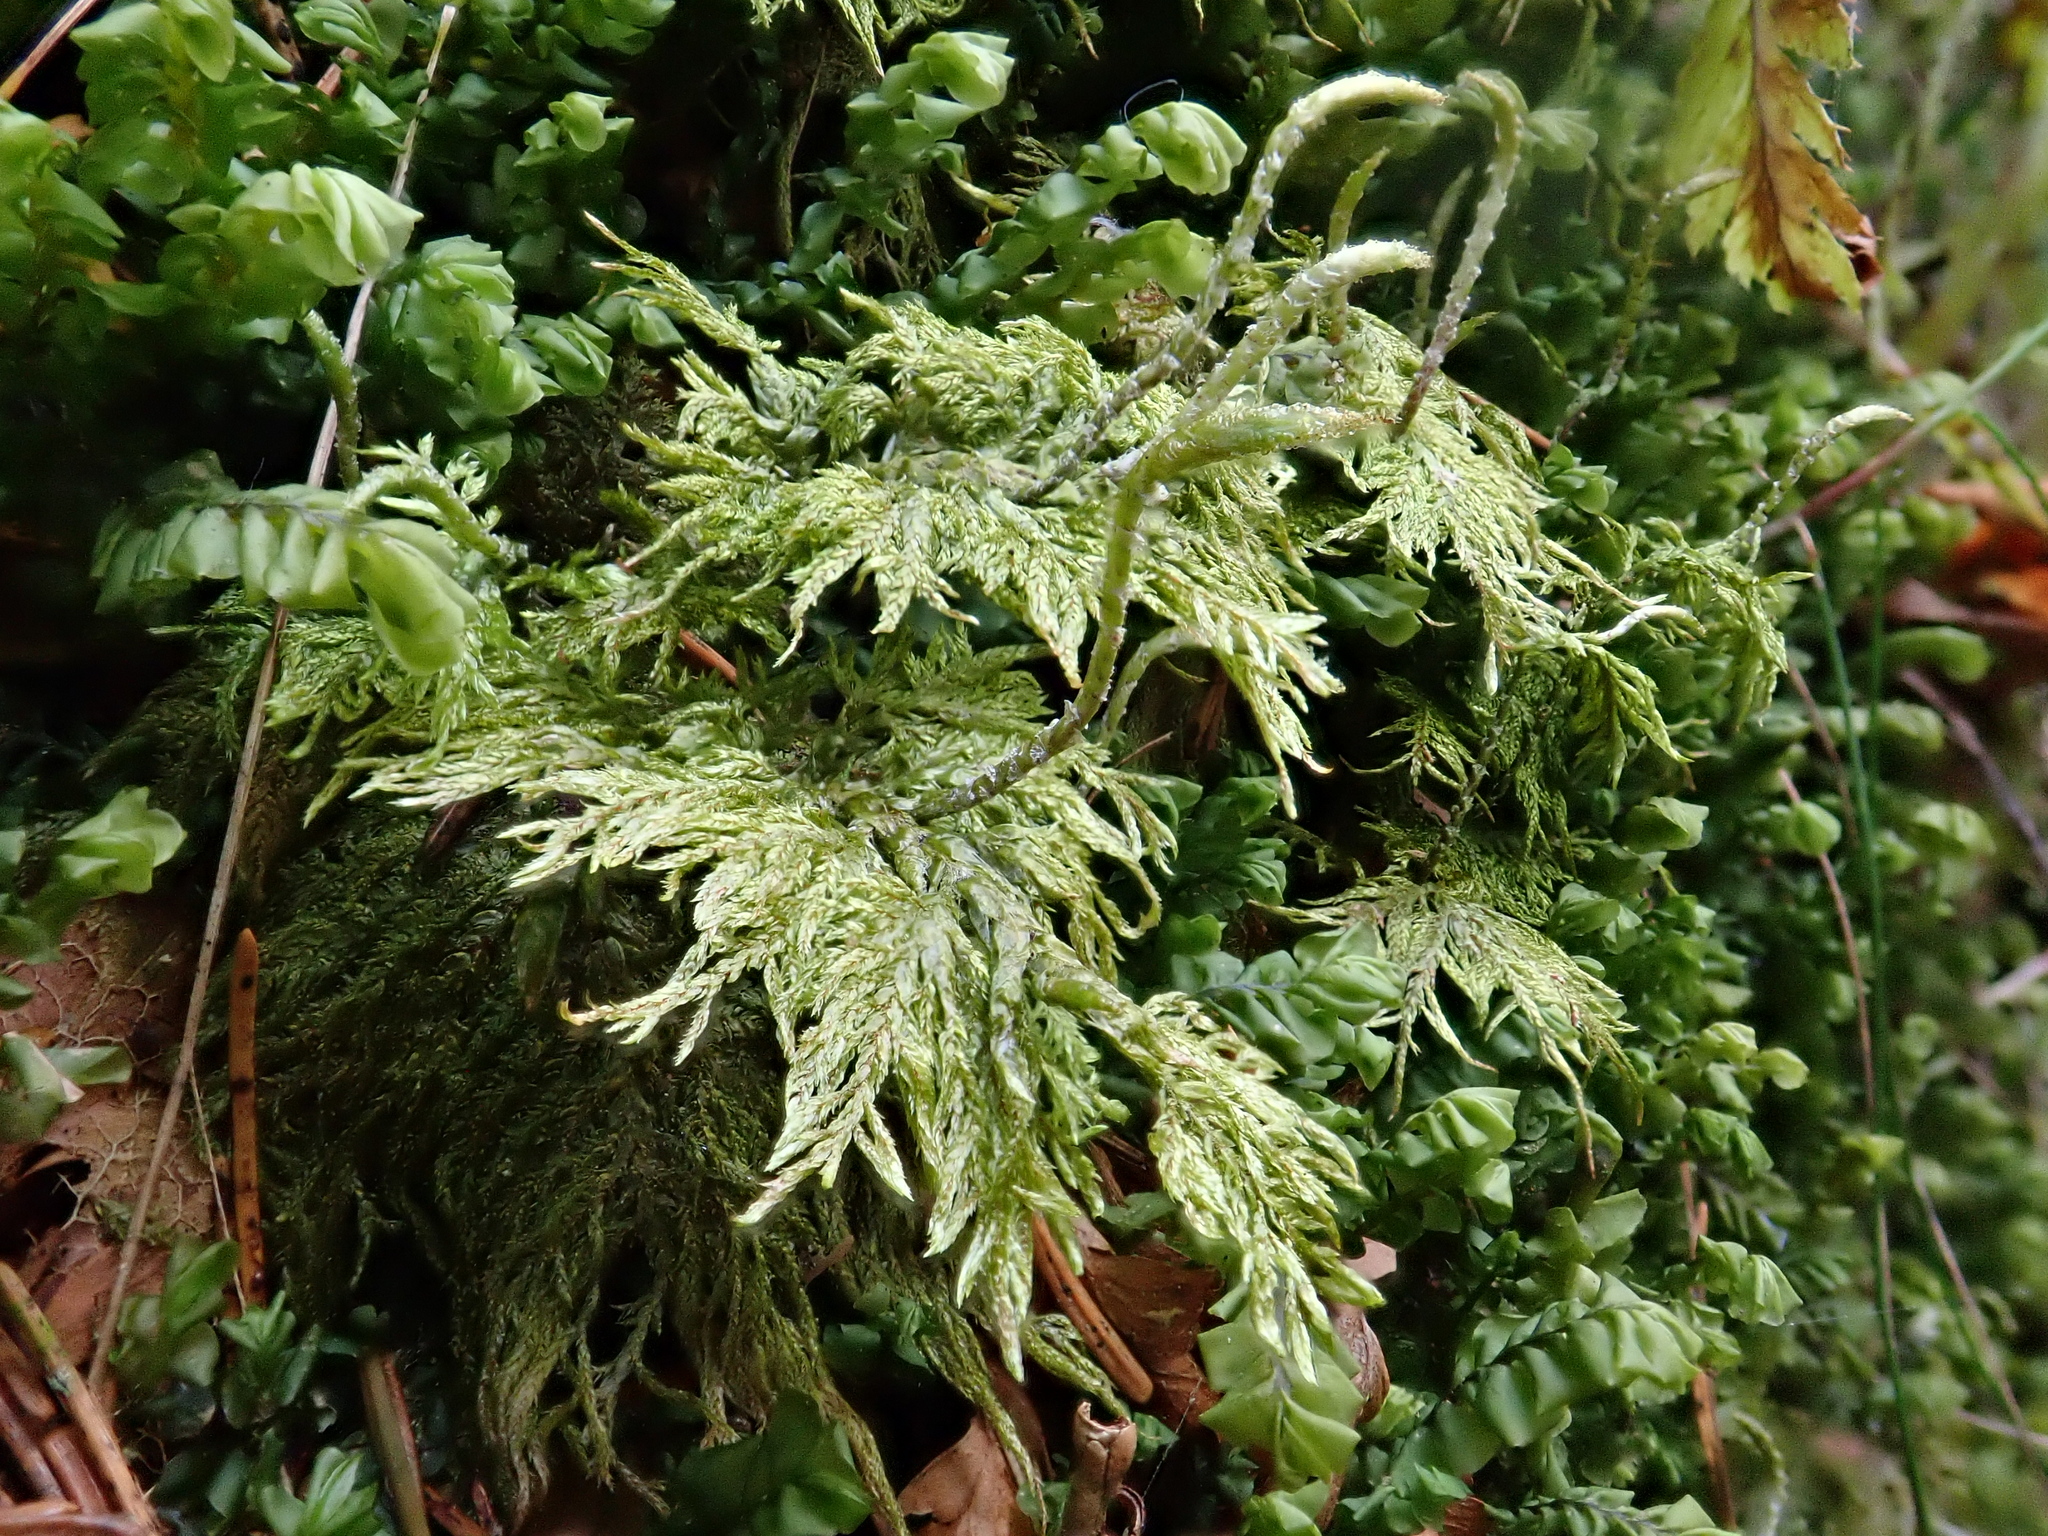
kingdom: Plantae
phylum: Bryophyta
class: Bryopsida
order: Hypnales
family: Hylocomiaceae
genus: Hylocomium
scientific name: Hylocomium splendens
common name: Stairstep moss
